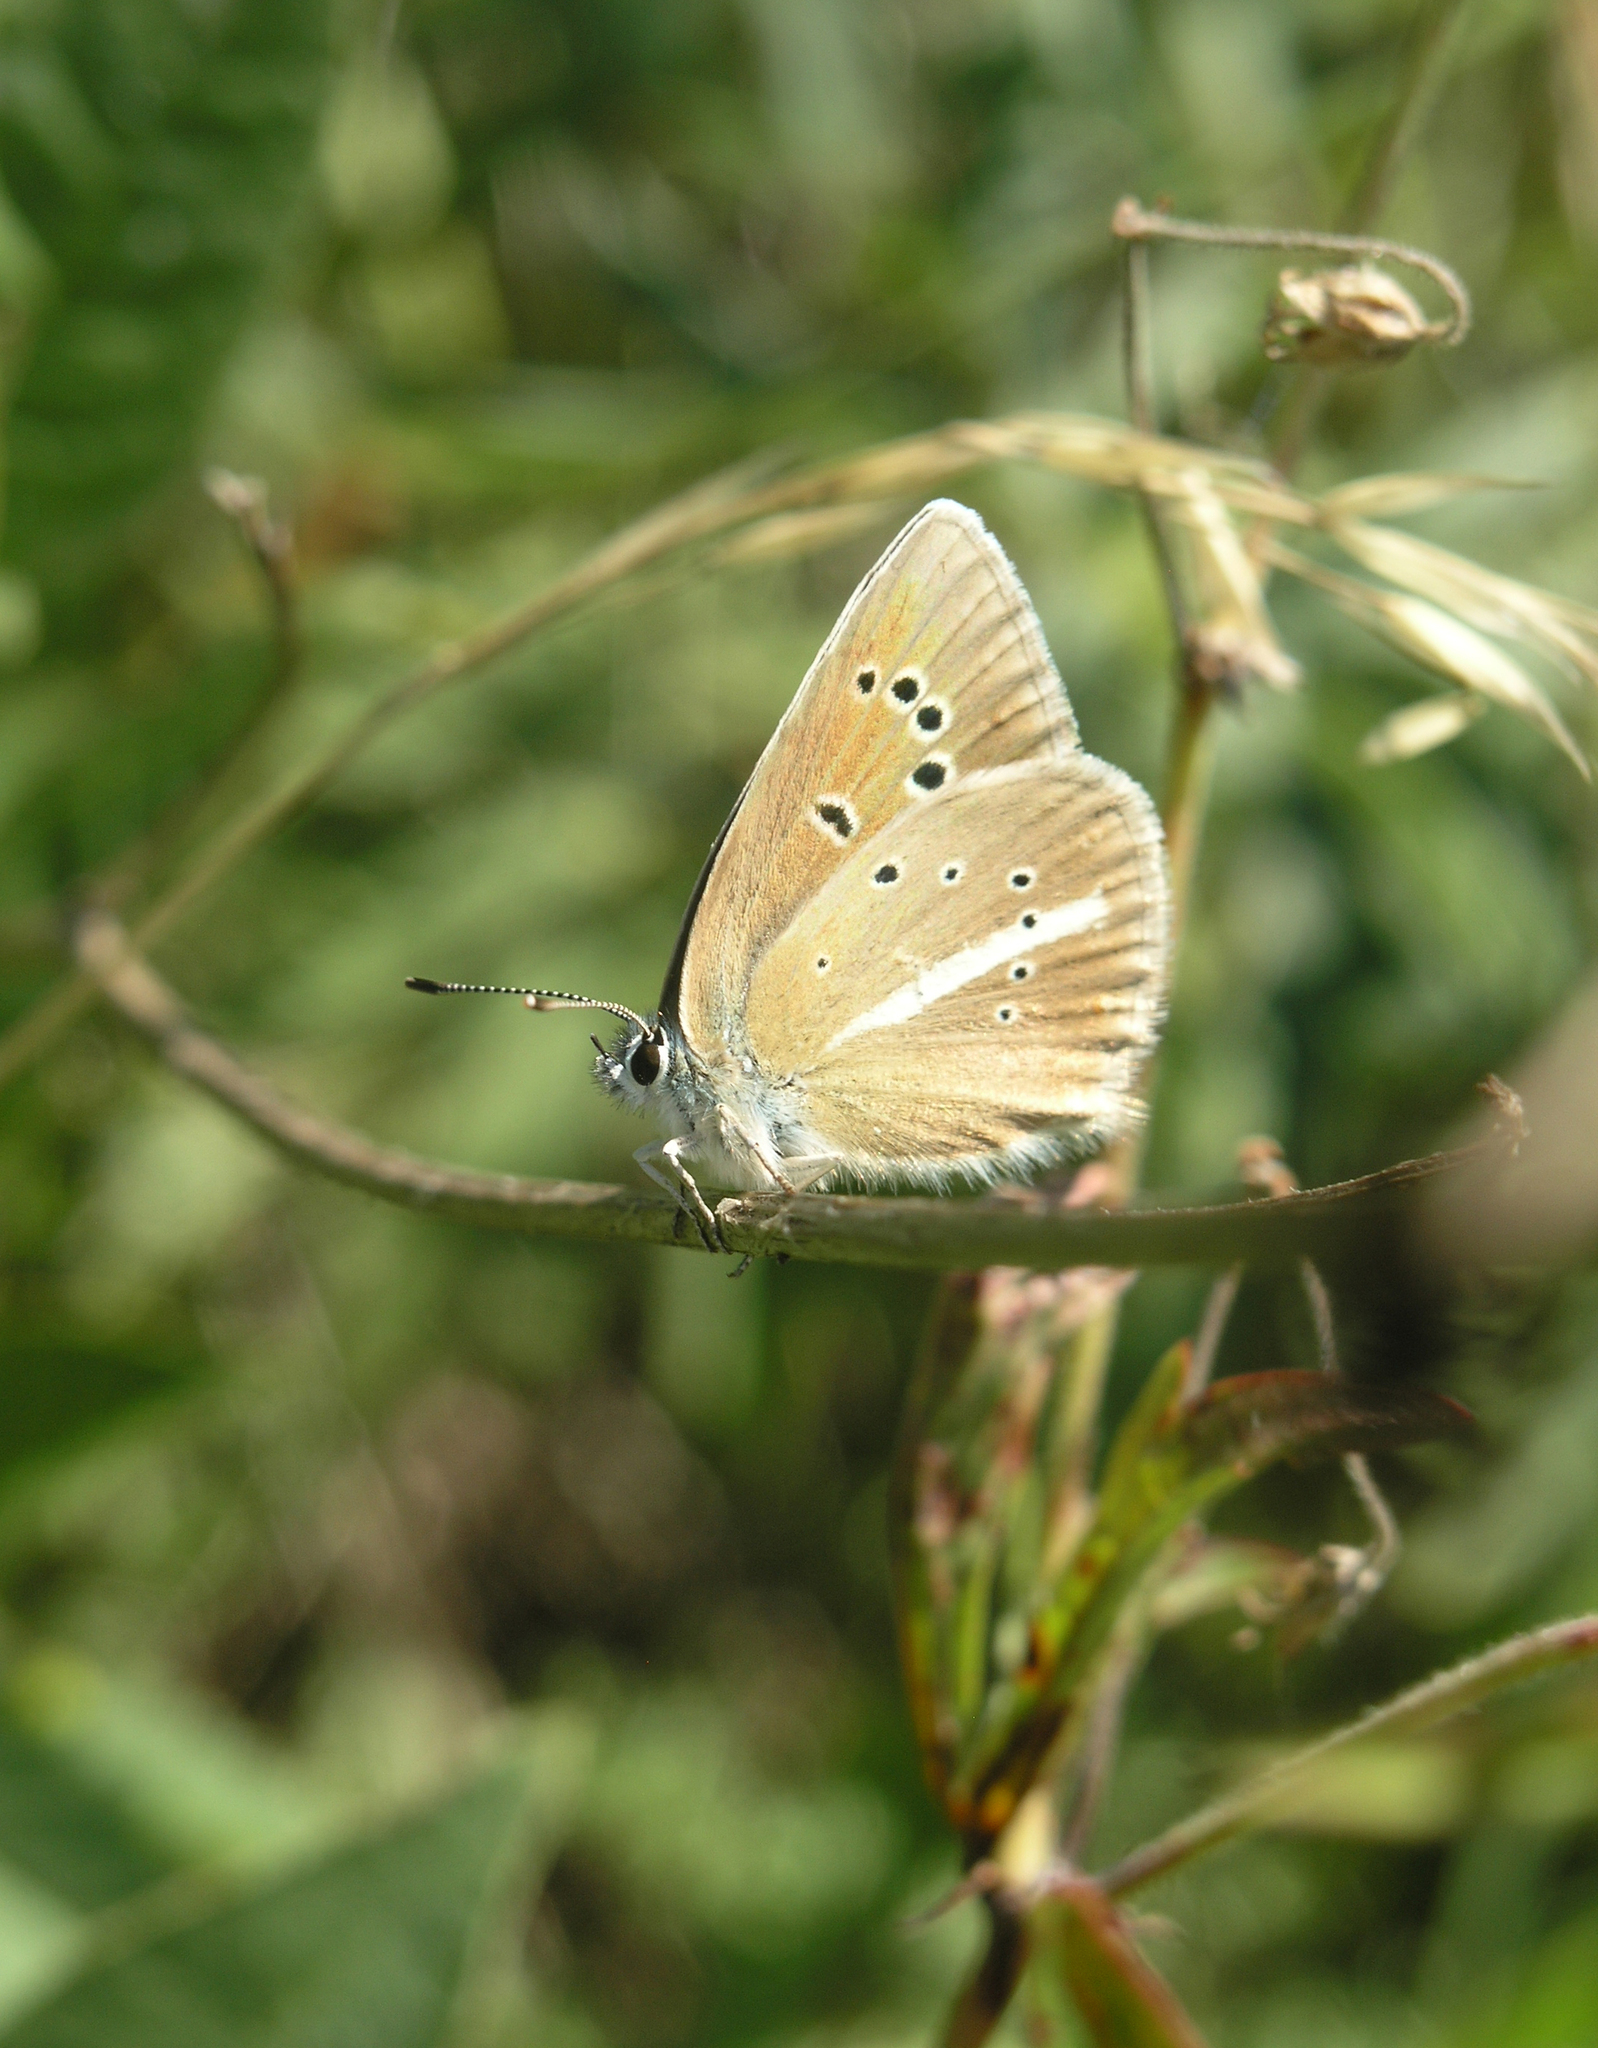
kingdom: Animalia
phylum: Arthropoda
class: Insecta
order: Lepidoptera
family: Lycaenidae
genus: Agrodiaetus
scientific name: Agrodiaetus damon
